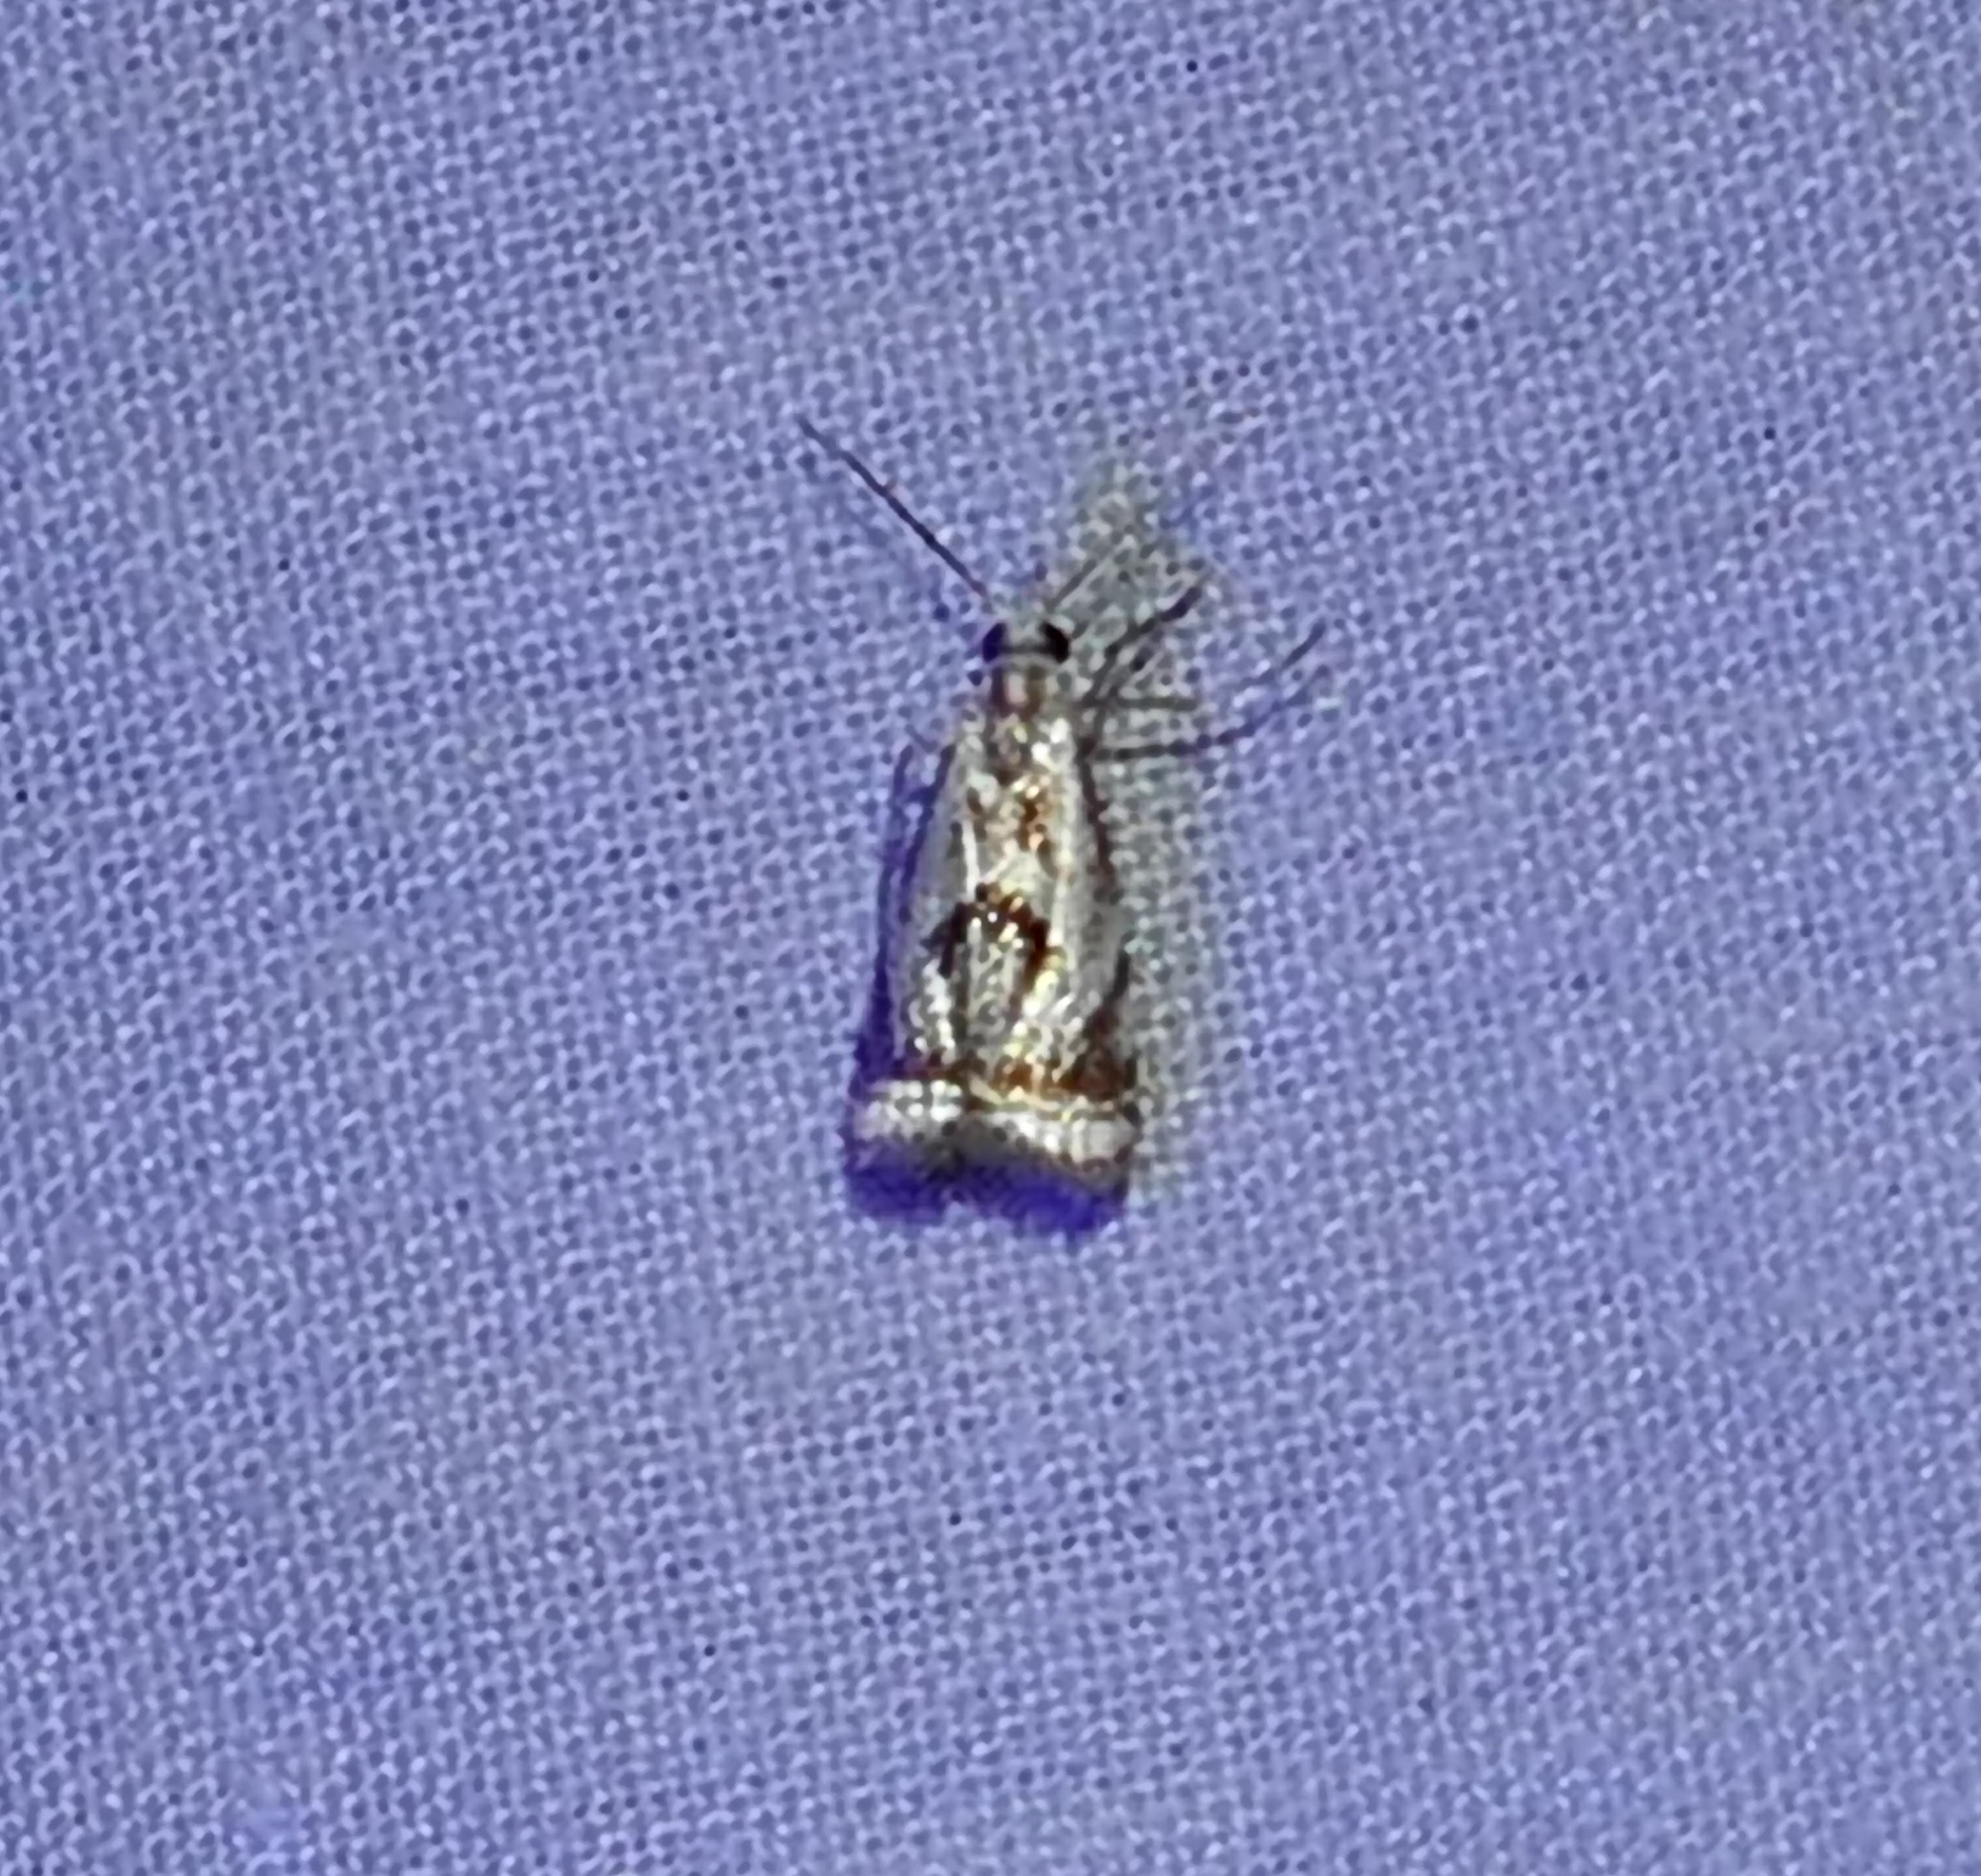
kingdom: Animalia
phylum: Arthropoda
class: Insecta
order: Lepidoptera
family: Crambidae
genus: Microcrambus
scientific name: Microcrambus elegans
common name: Elegant grass-veneer
